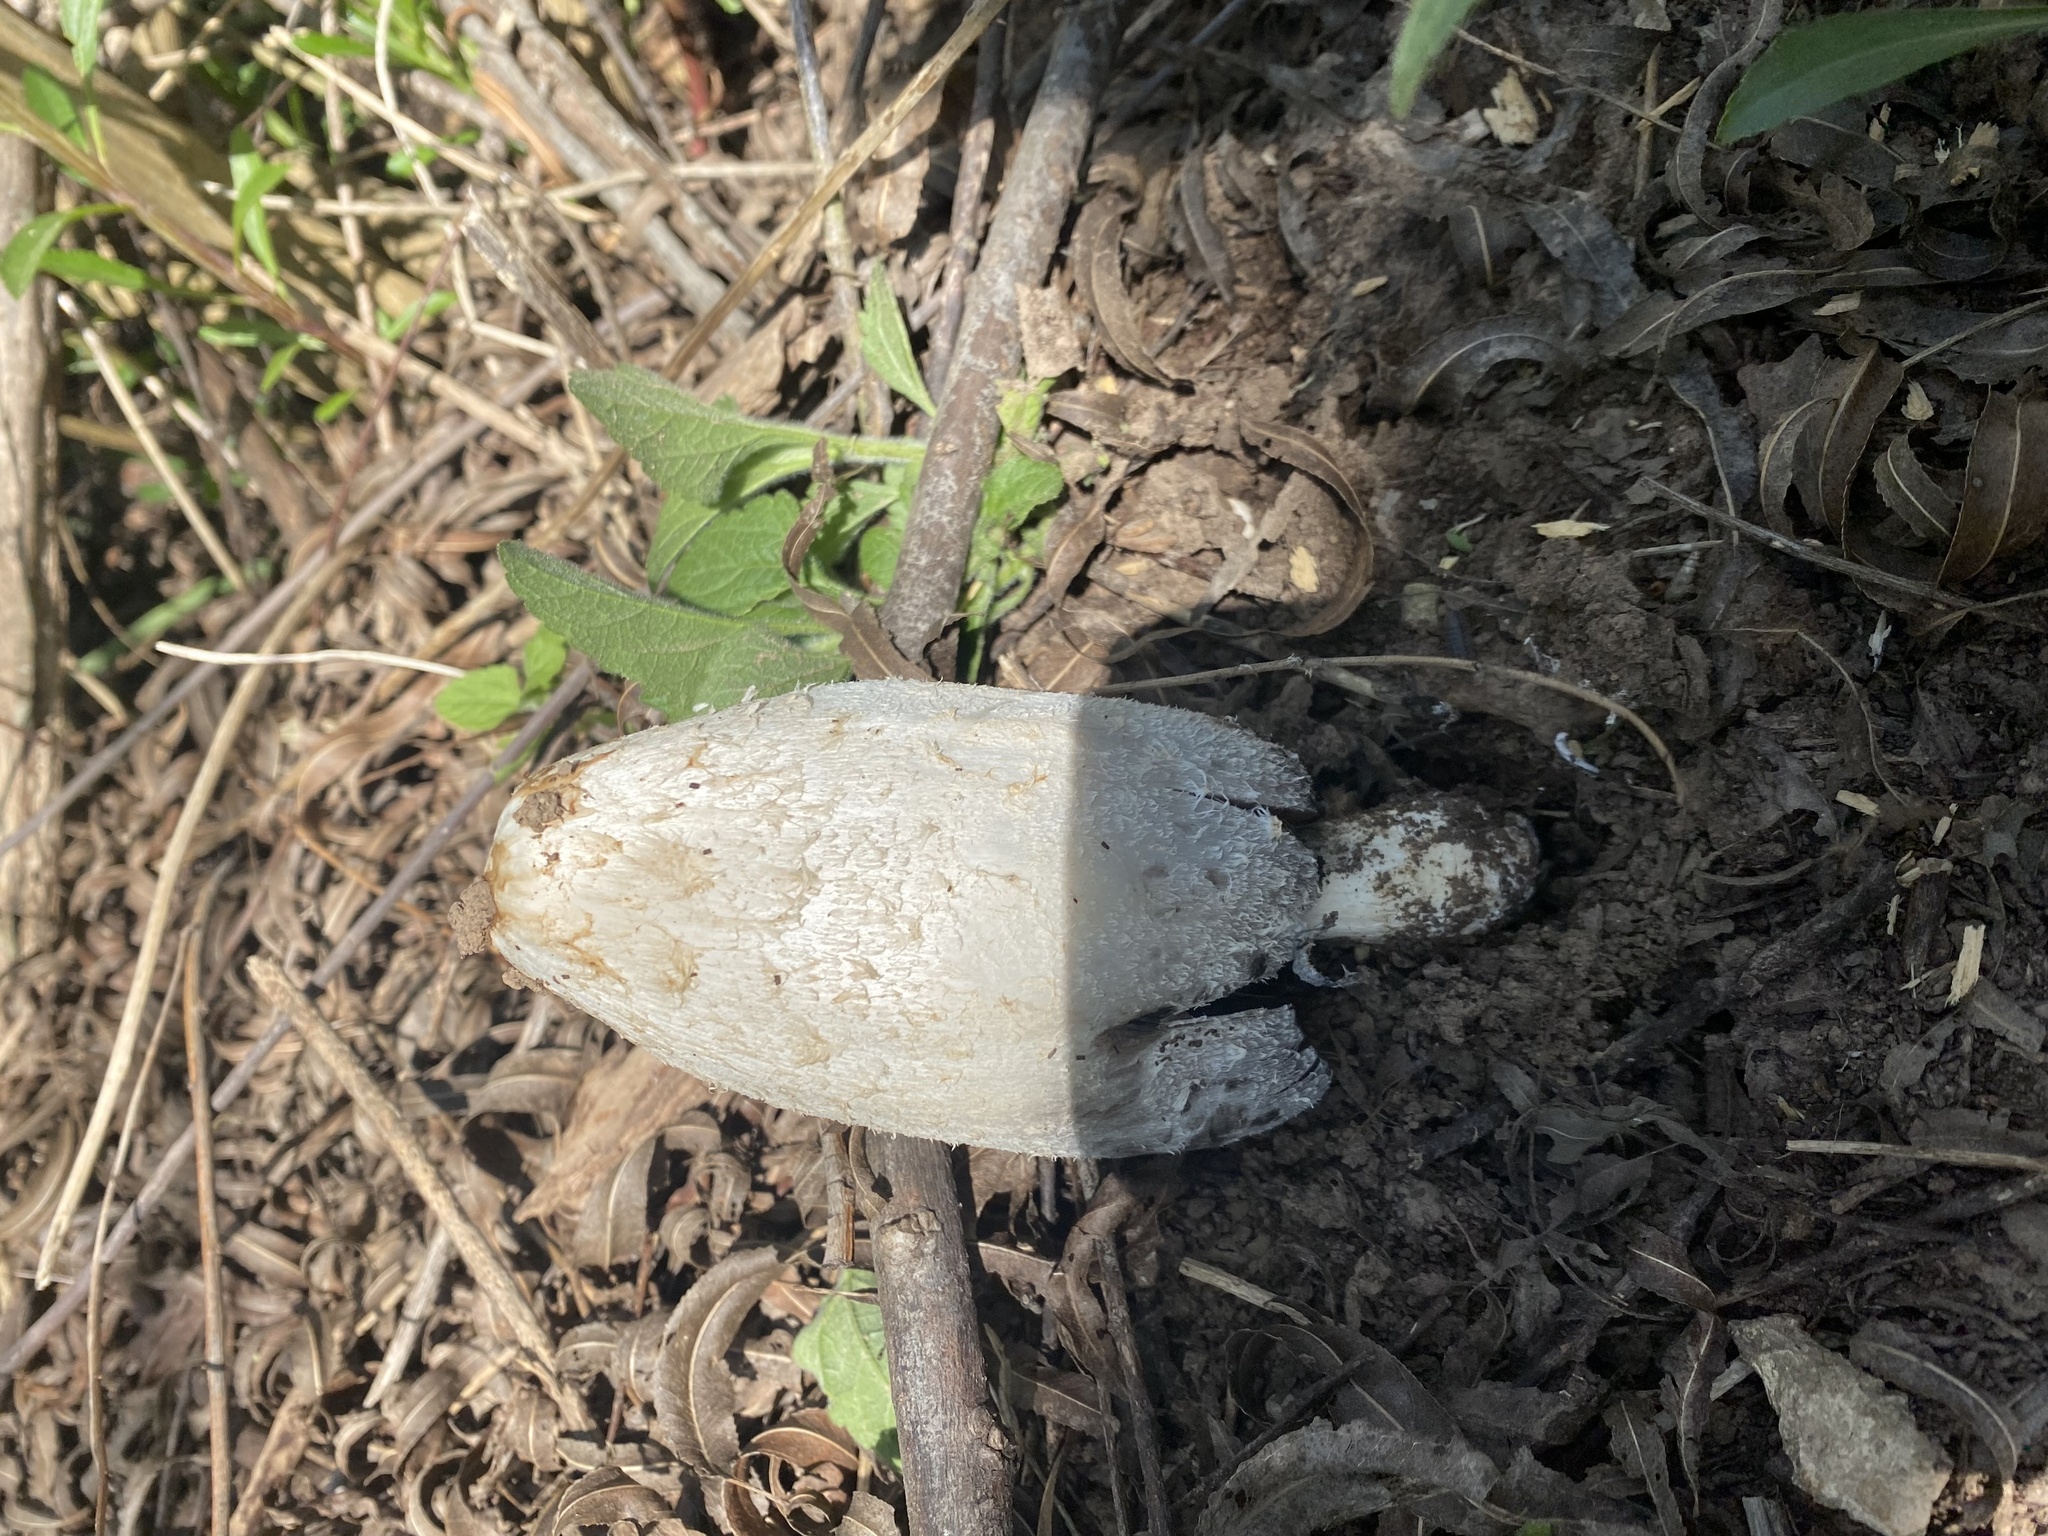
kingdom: Fungi
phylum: Basidiomycota
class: Agaricomycetes
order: Agaricales
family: Agaricaceae
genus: Coprinus
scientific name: Coprinus comatus
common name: Lawyer's wig
